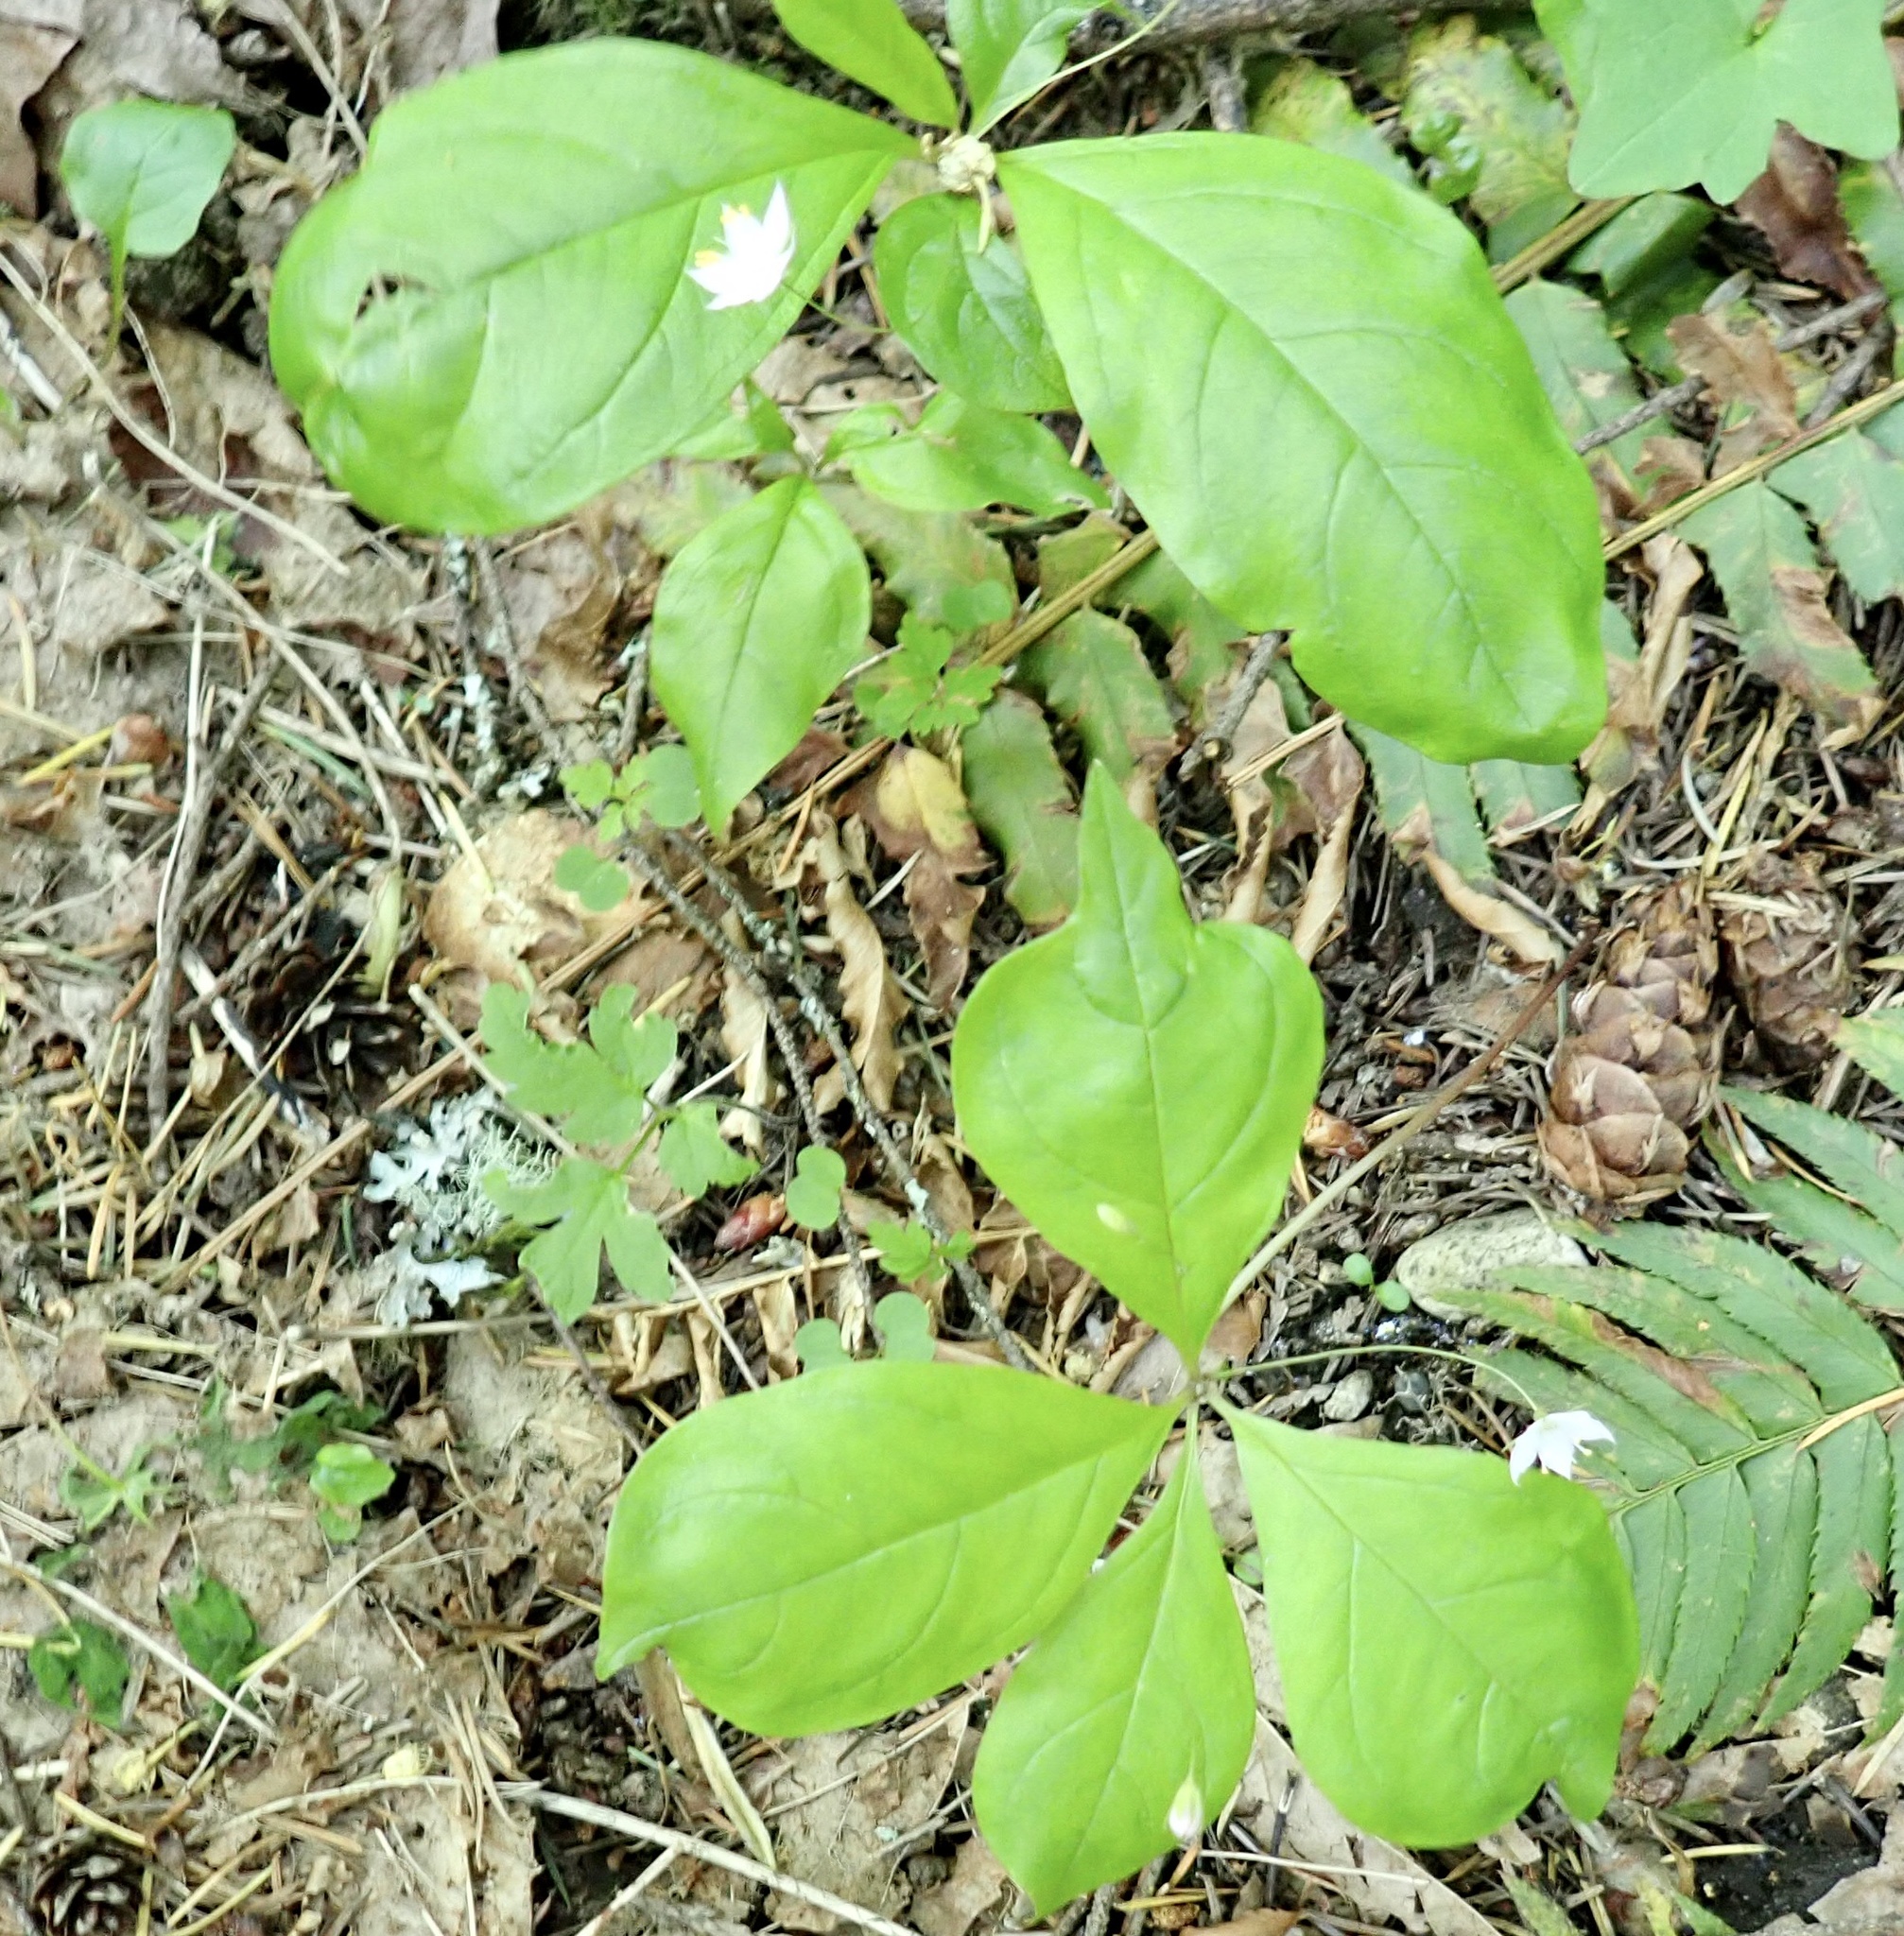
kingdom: Plantae
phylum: Tracheophyta
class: Magnoliopsida
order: Ericales
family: Primulaceae
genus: Lysimachia
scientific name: Lysimachia latifolia
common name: Pacific starflower
